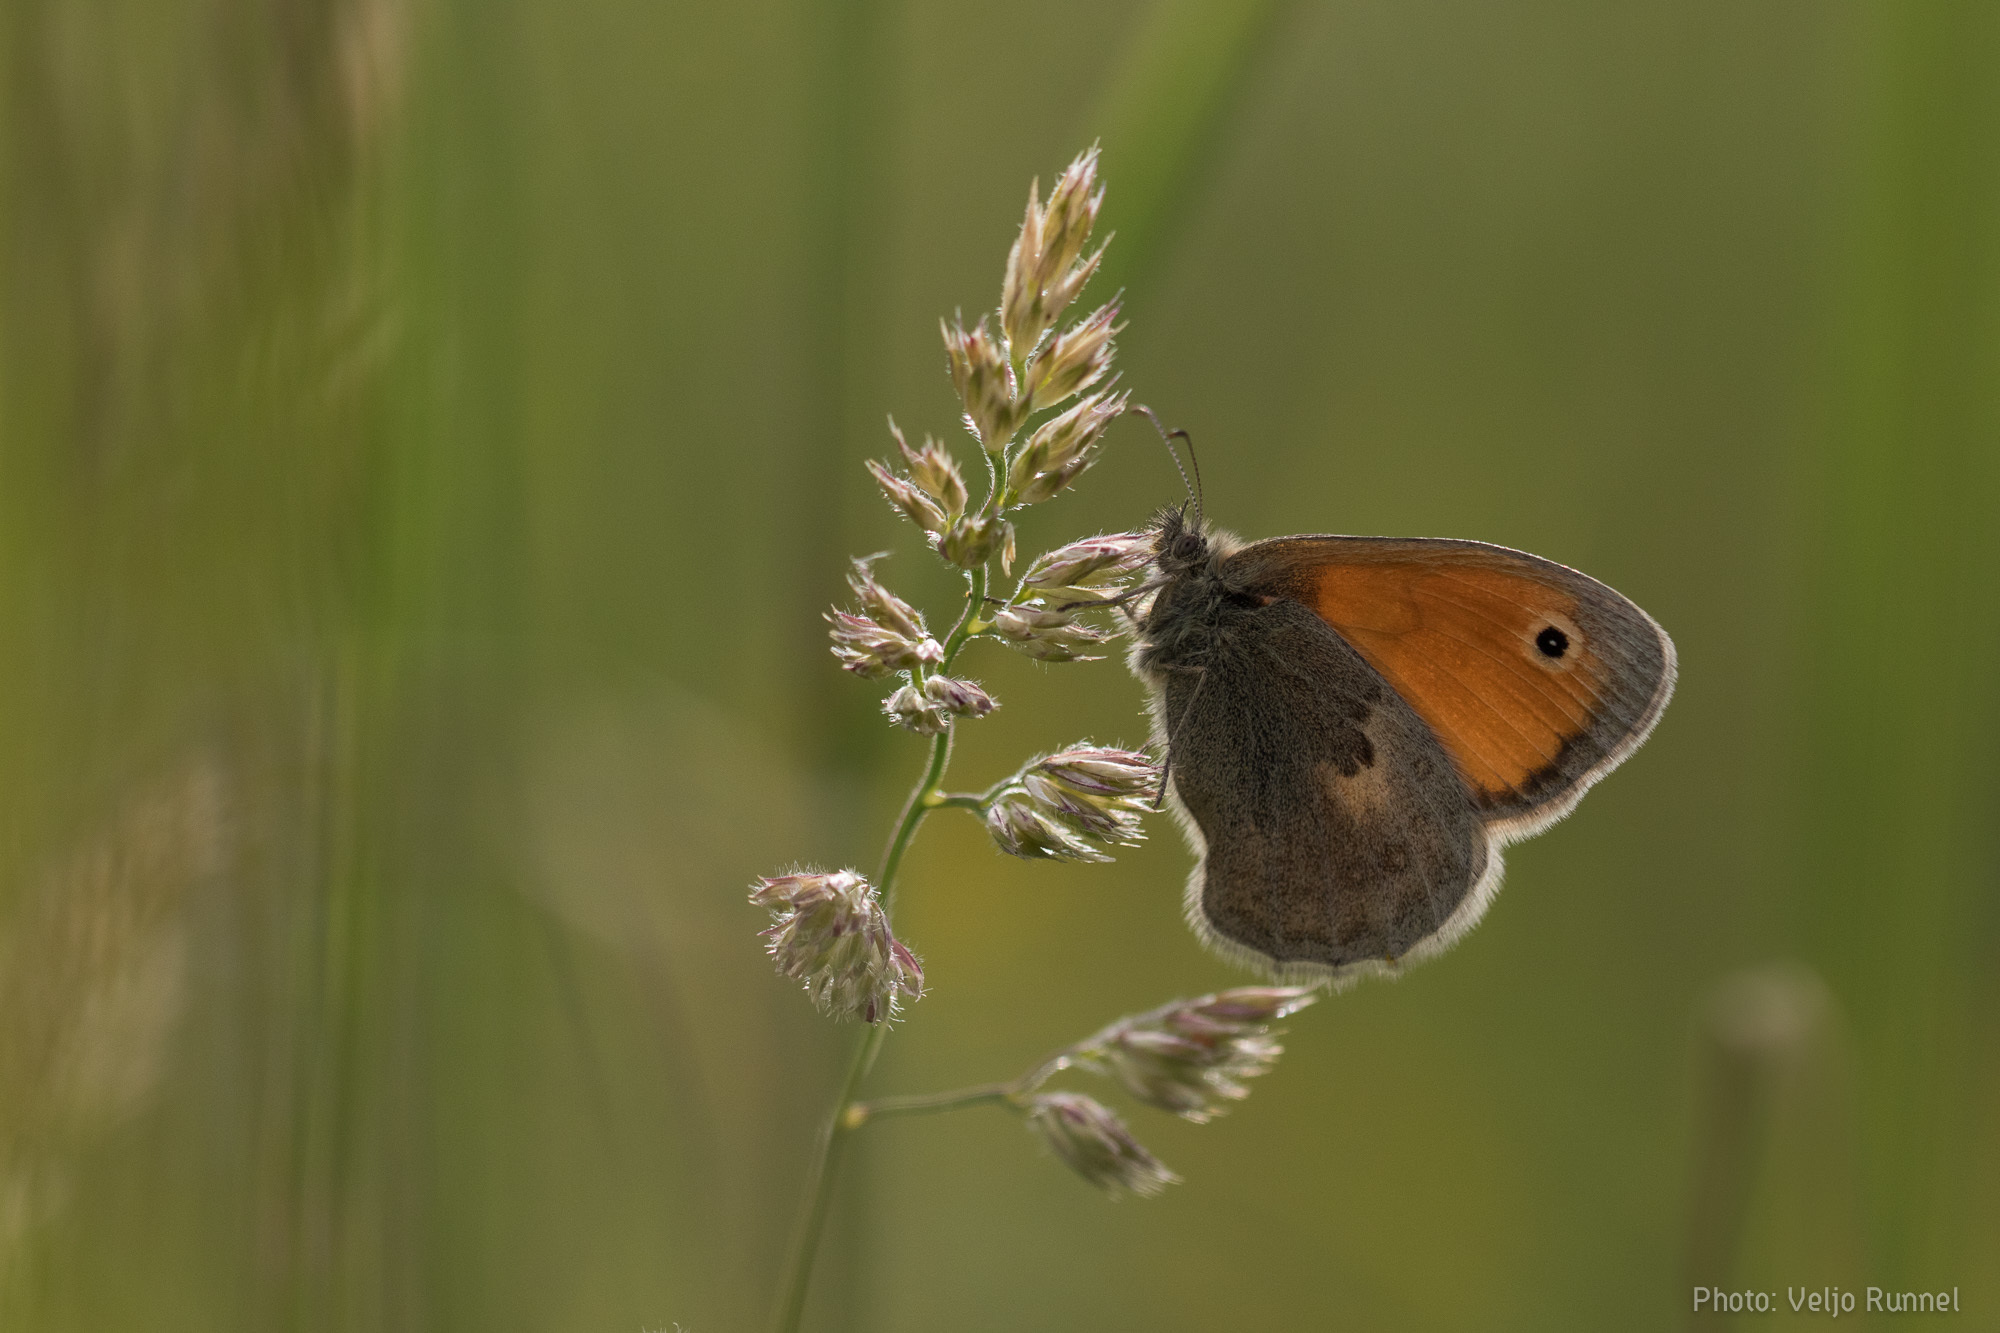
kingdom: Animalia
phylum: Arthropoda
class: Insecta
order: Lepidoptera
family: Nymphalidae
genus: Coenonympha
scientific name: Coenonympha pamphilus
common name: Small heath
